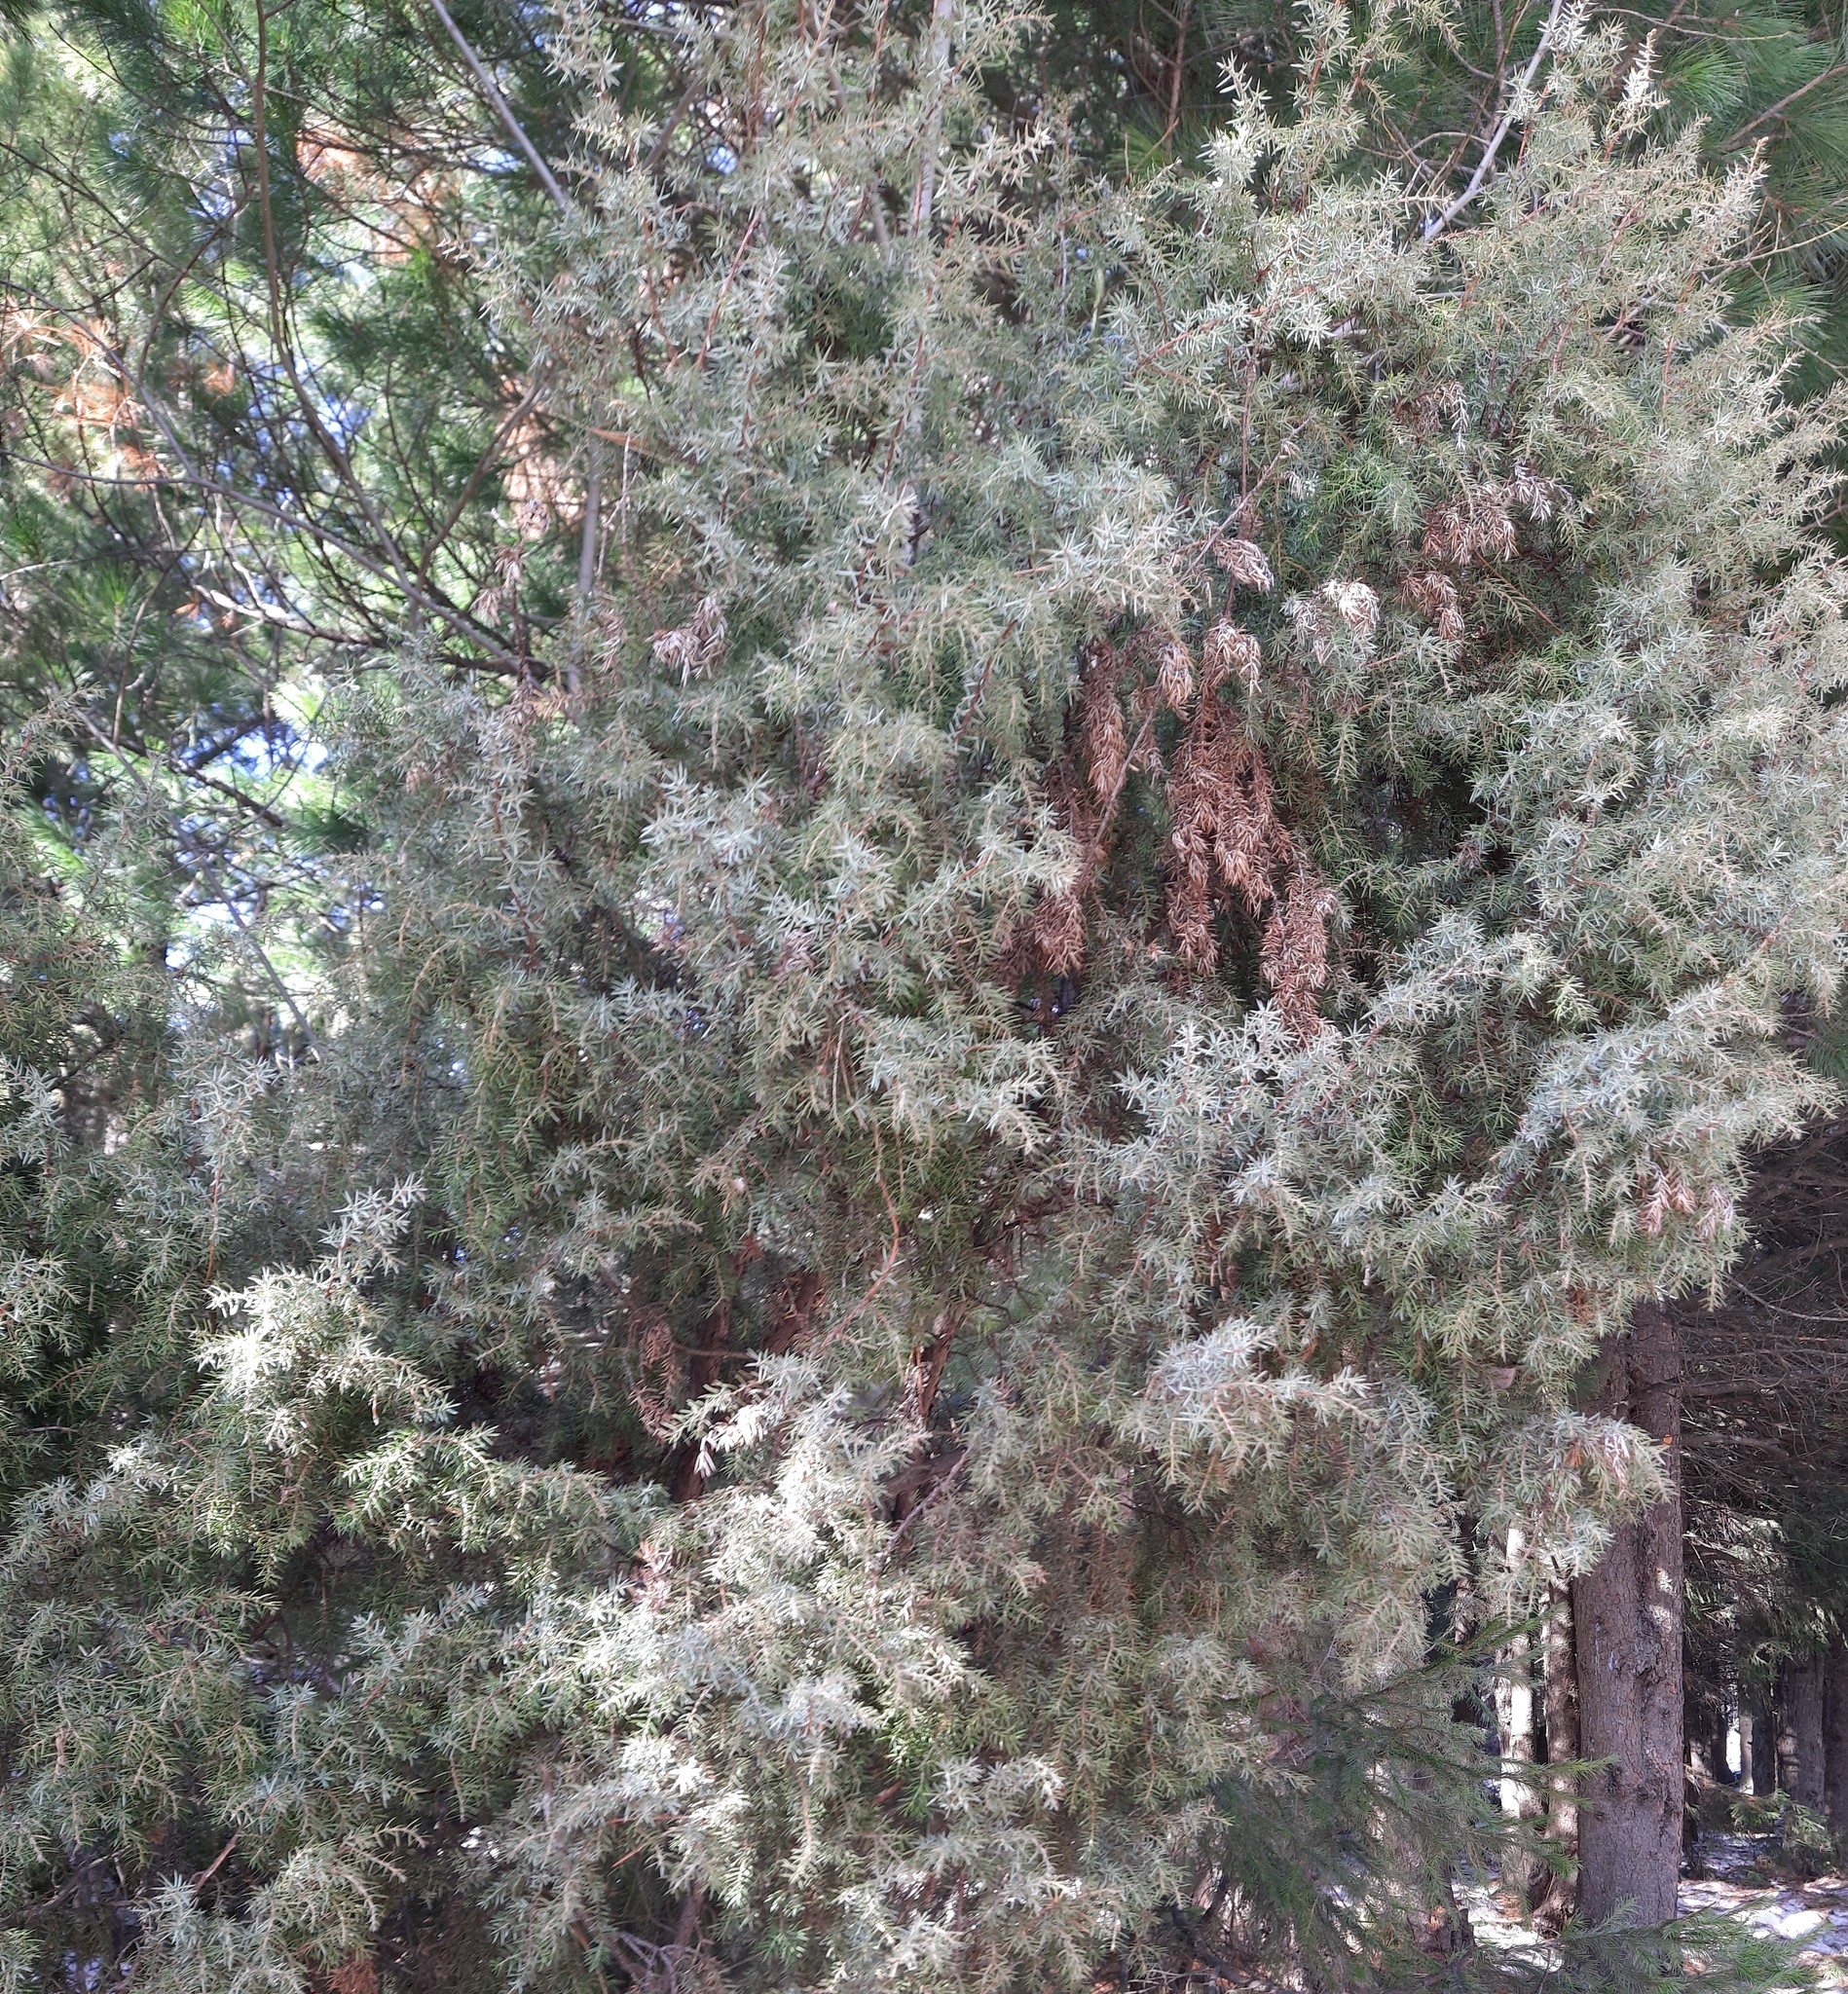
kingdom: Plantae
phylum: Tracheophyta
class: Pinopsida
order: Pinales
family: Cupressaceae
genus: Juniperus
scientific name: Juniperus communis
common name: Common juniper
